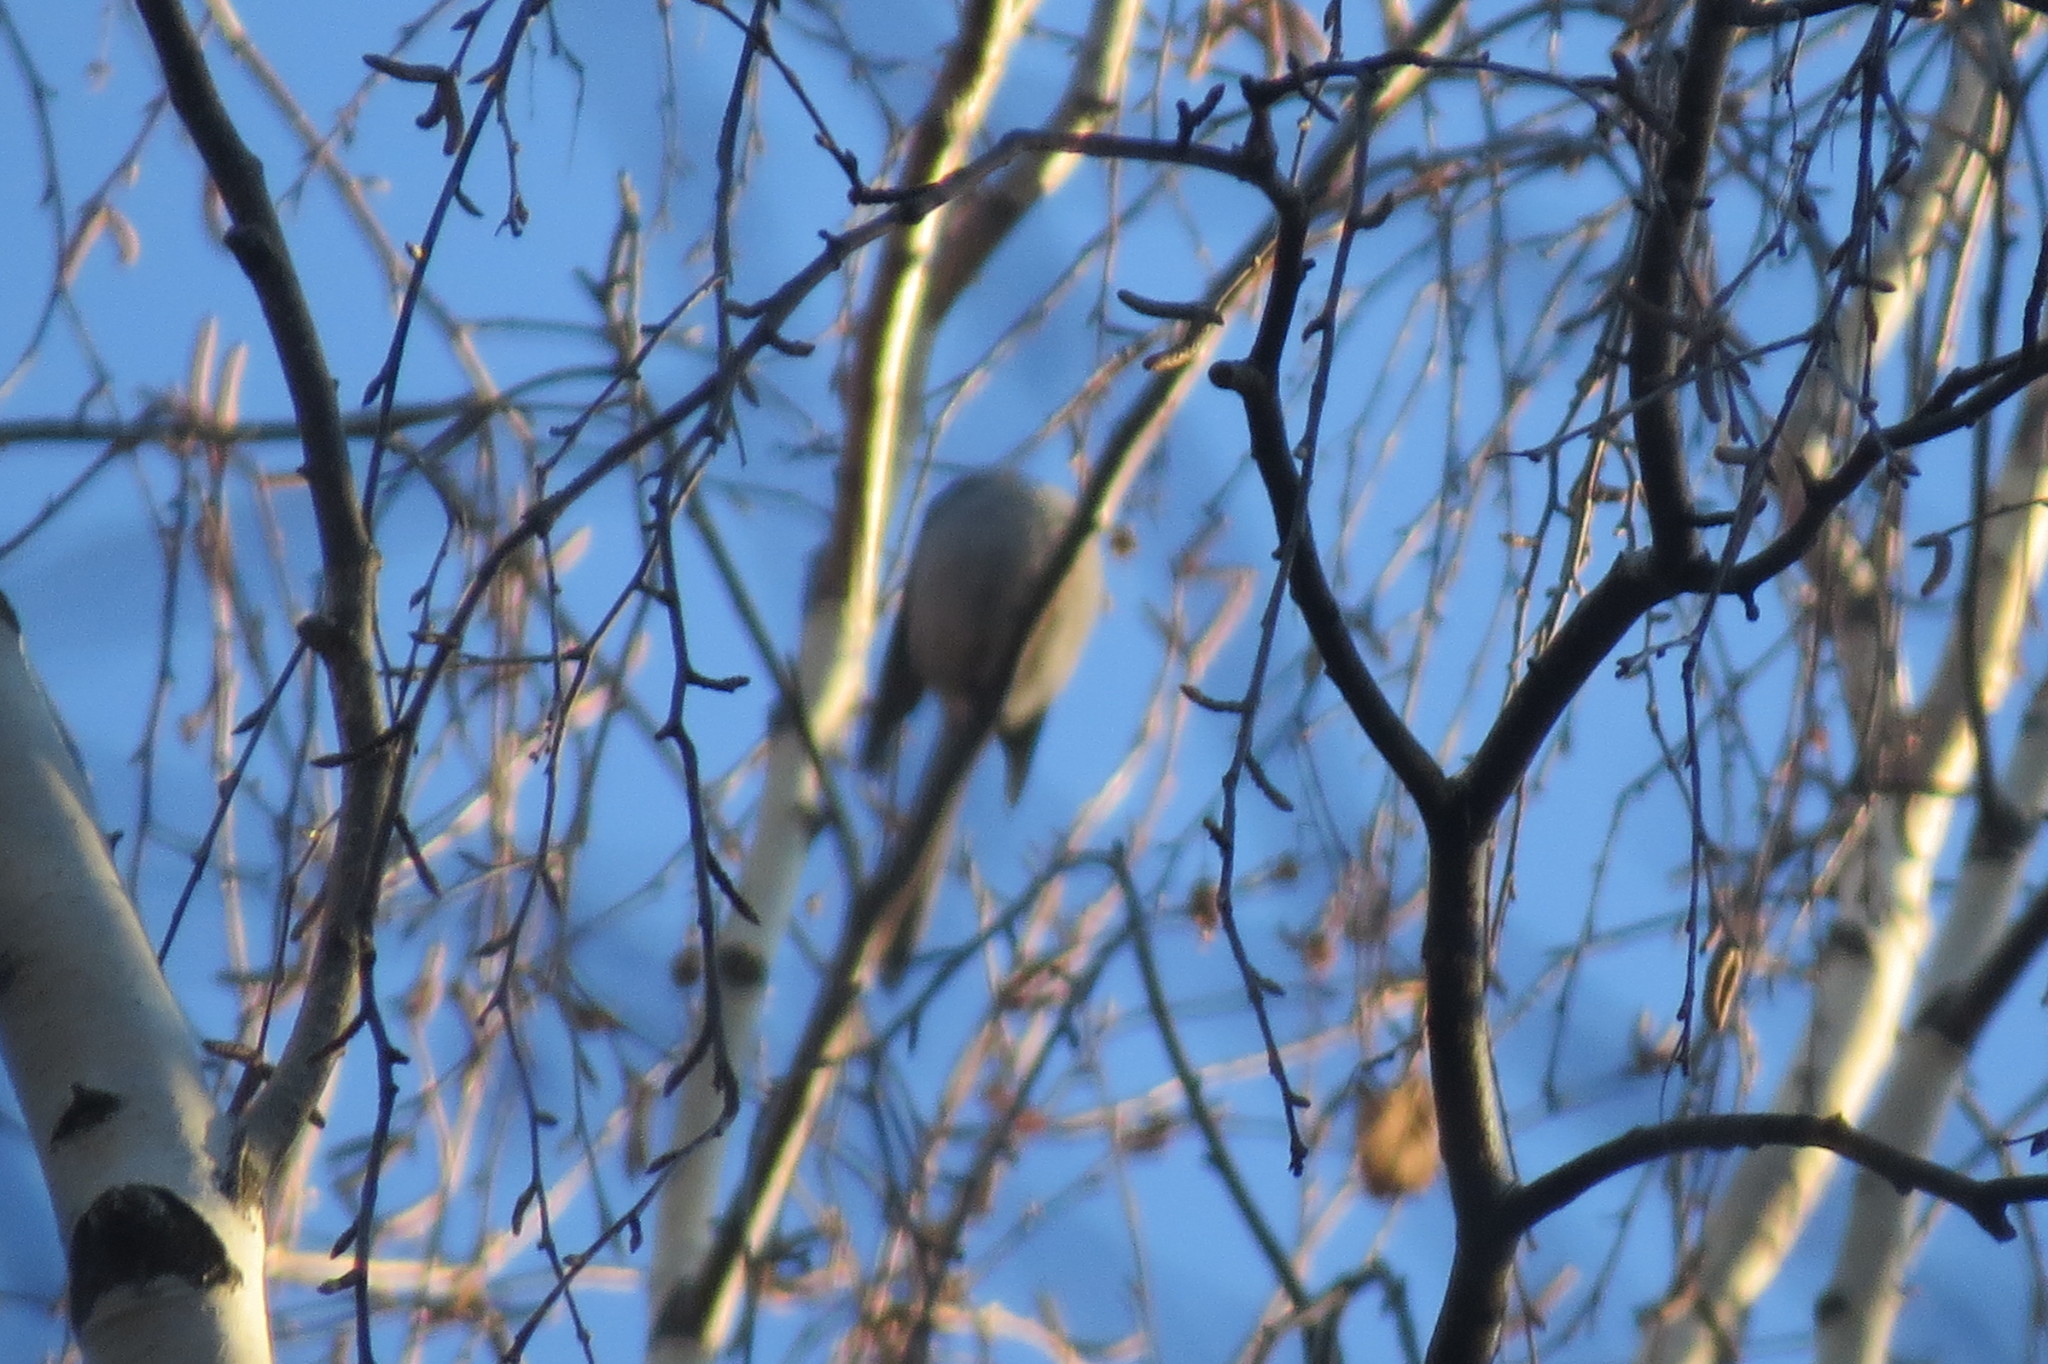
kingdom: Animalia
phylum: Chordata
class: Aves
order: Passeriformes
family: Aegithalidae
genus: Aegithalos
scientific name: Aegithalos caudatus
